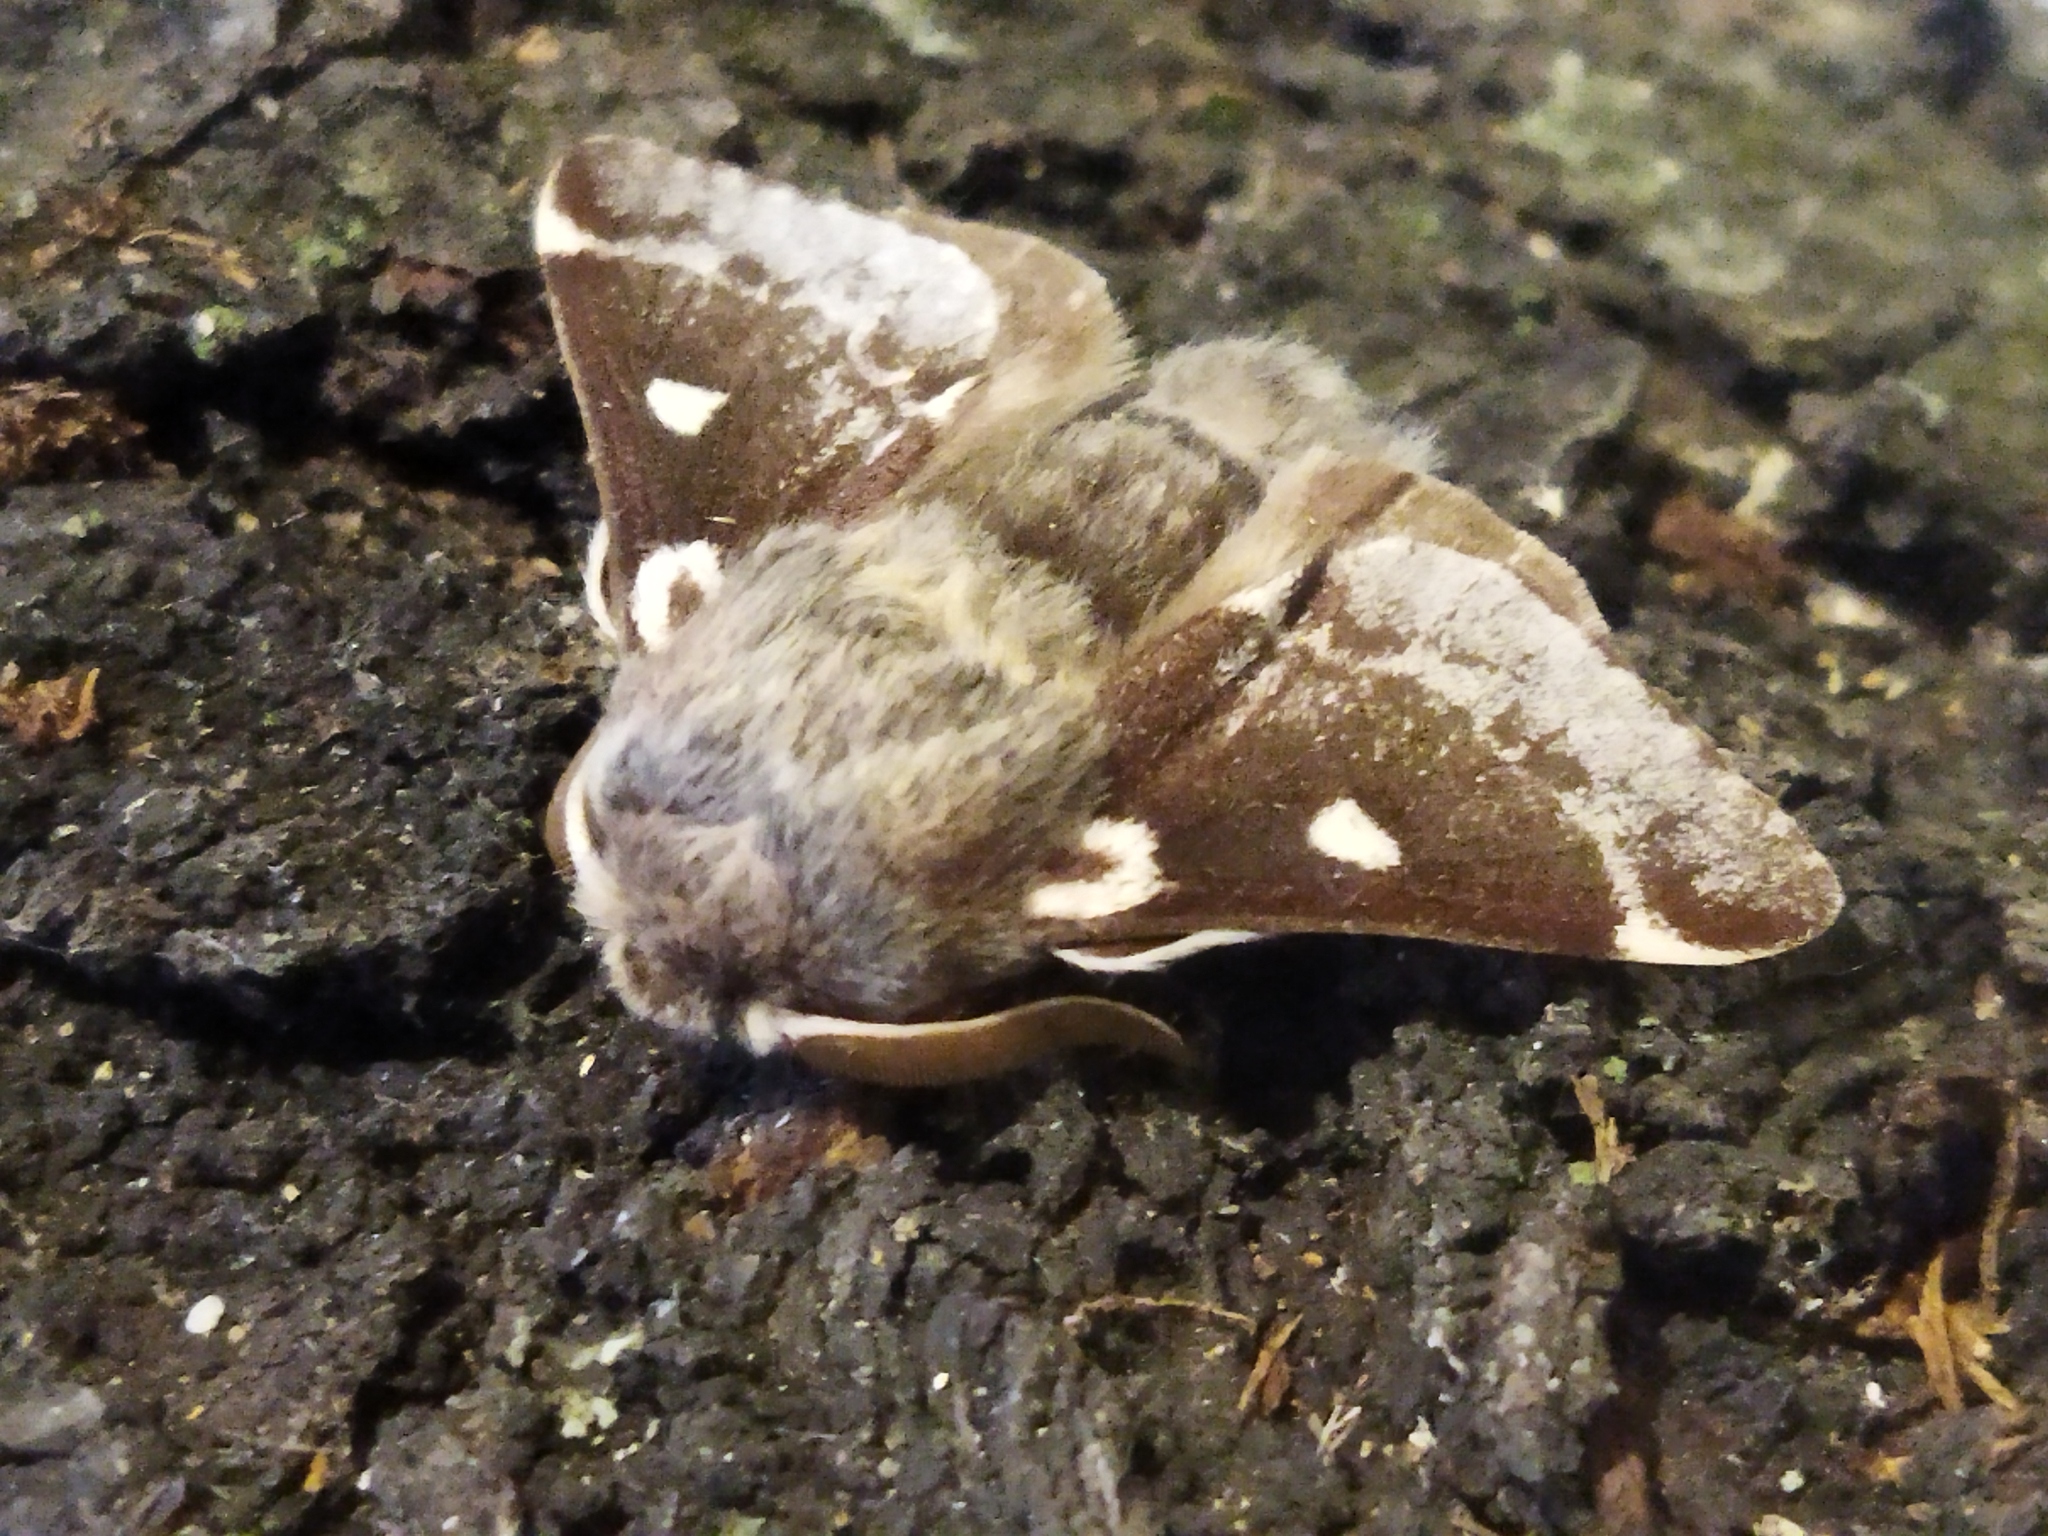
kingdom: Animalia
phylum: Arthropoda
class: Insecta
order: Lepidoptera
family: Lasiocampidae
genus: Eriogaster
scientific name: Eriogaster lanestris
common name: Small eggar
